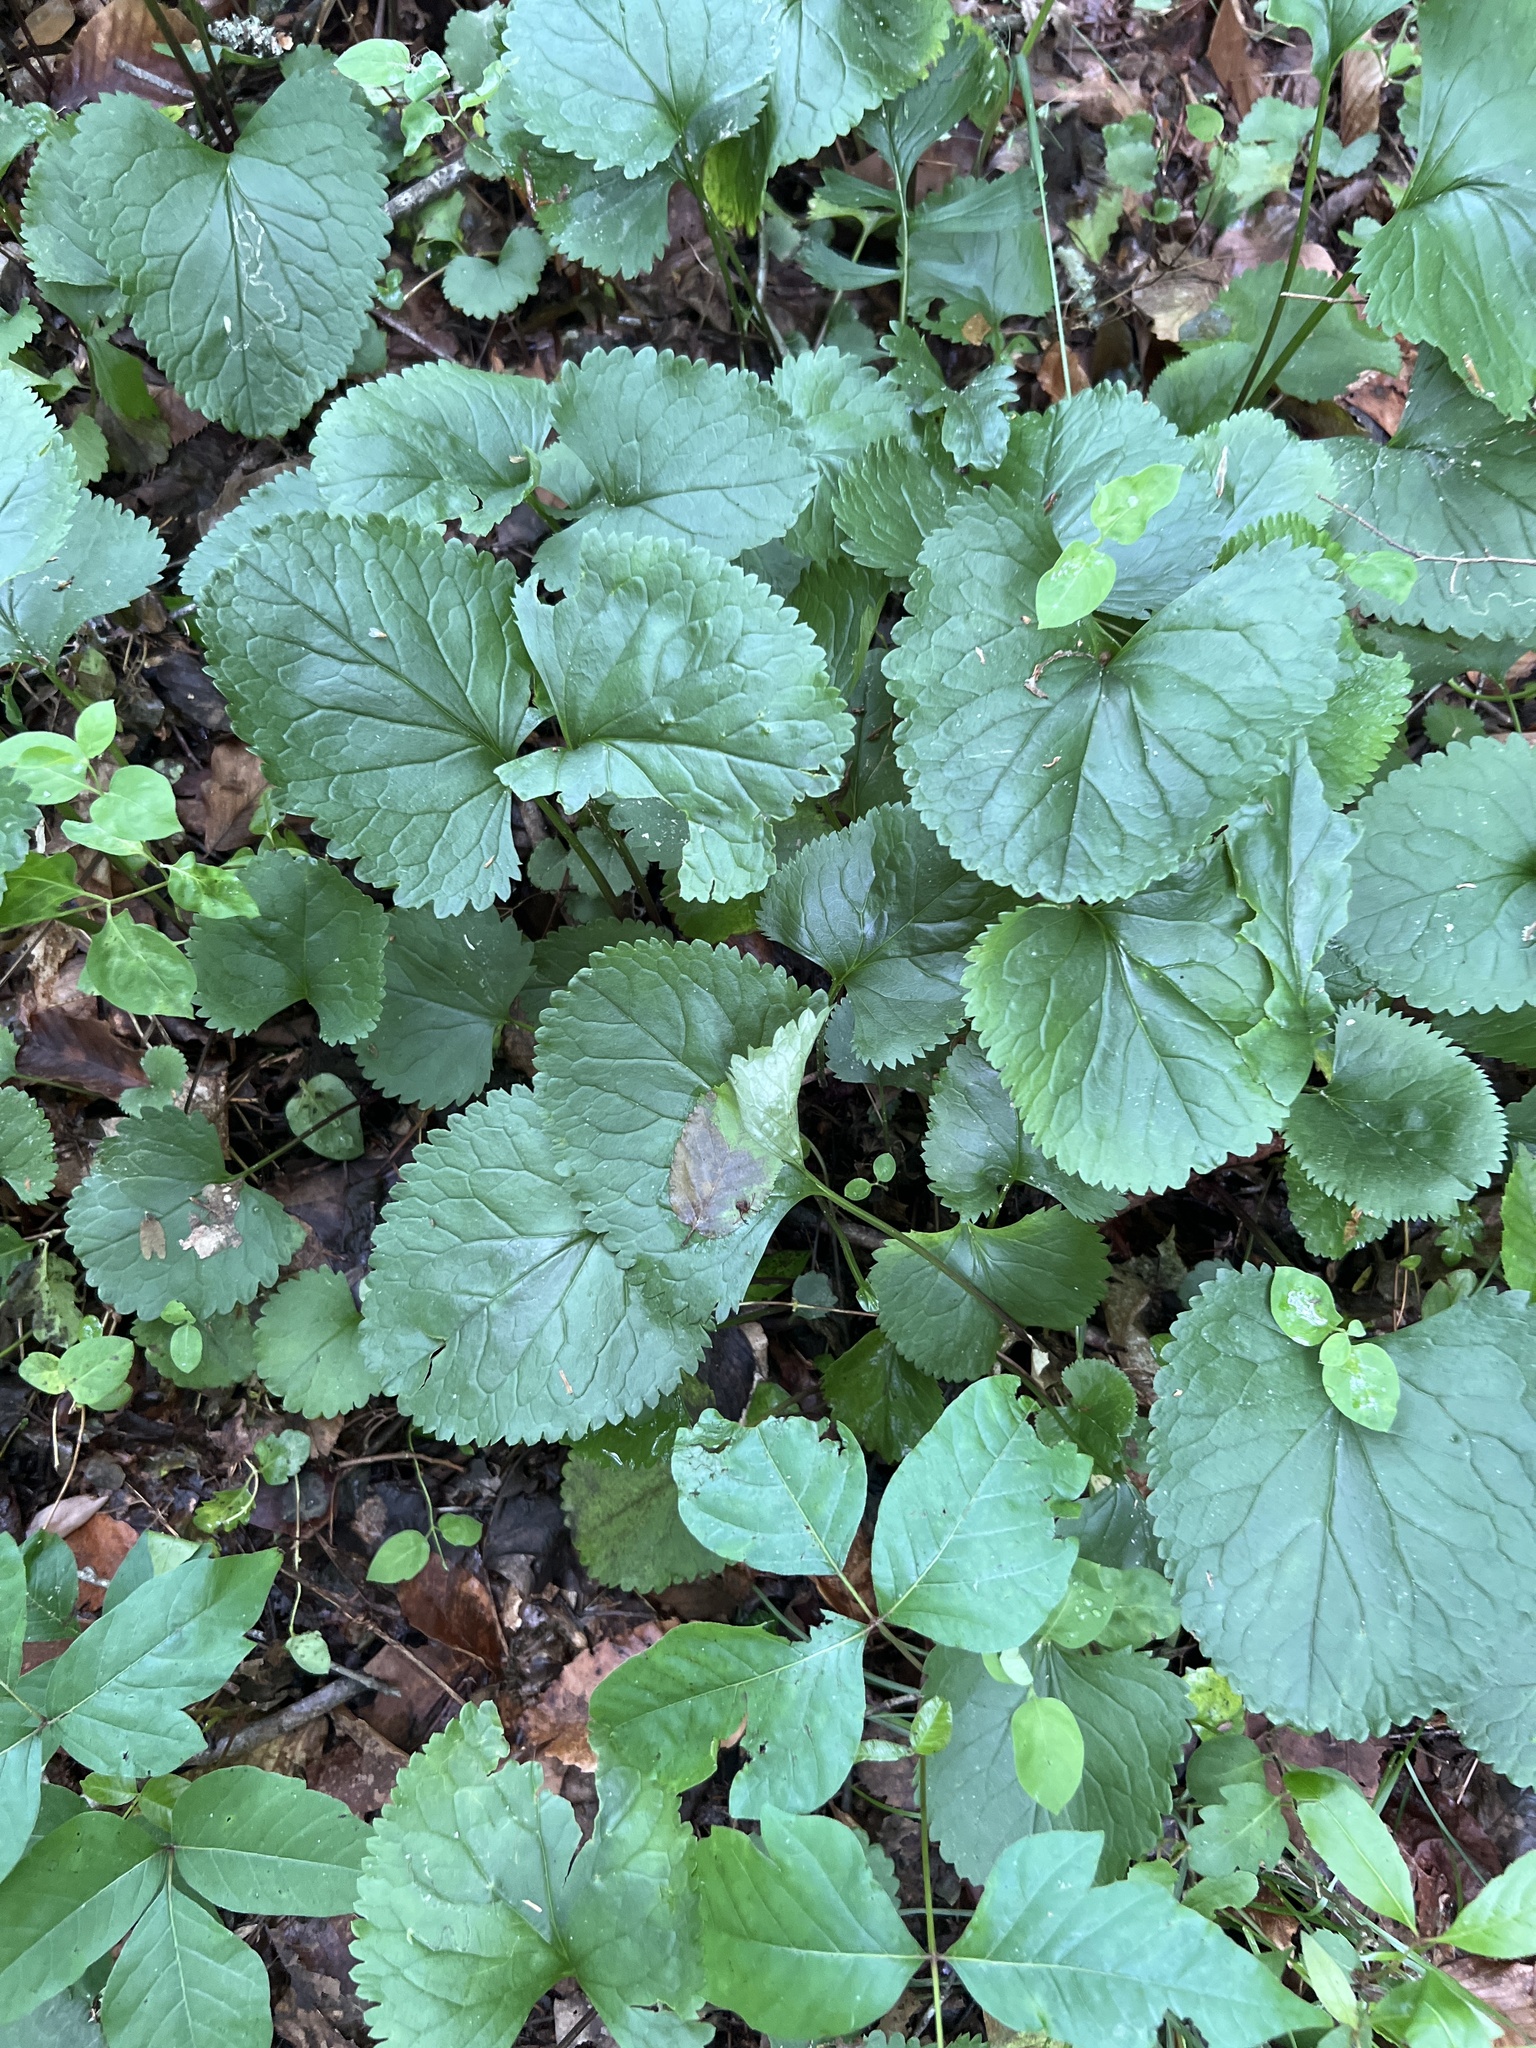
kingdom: Plantae
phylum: Tracheophyta
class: Magnoliopsida
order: Asterales
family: Asteraceae
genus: Packera
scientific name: Packera aurea
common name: Golden groundsel
